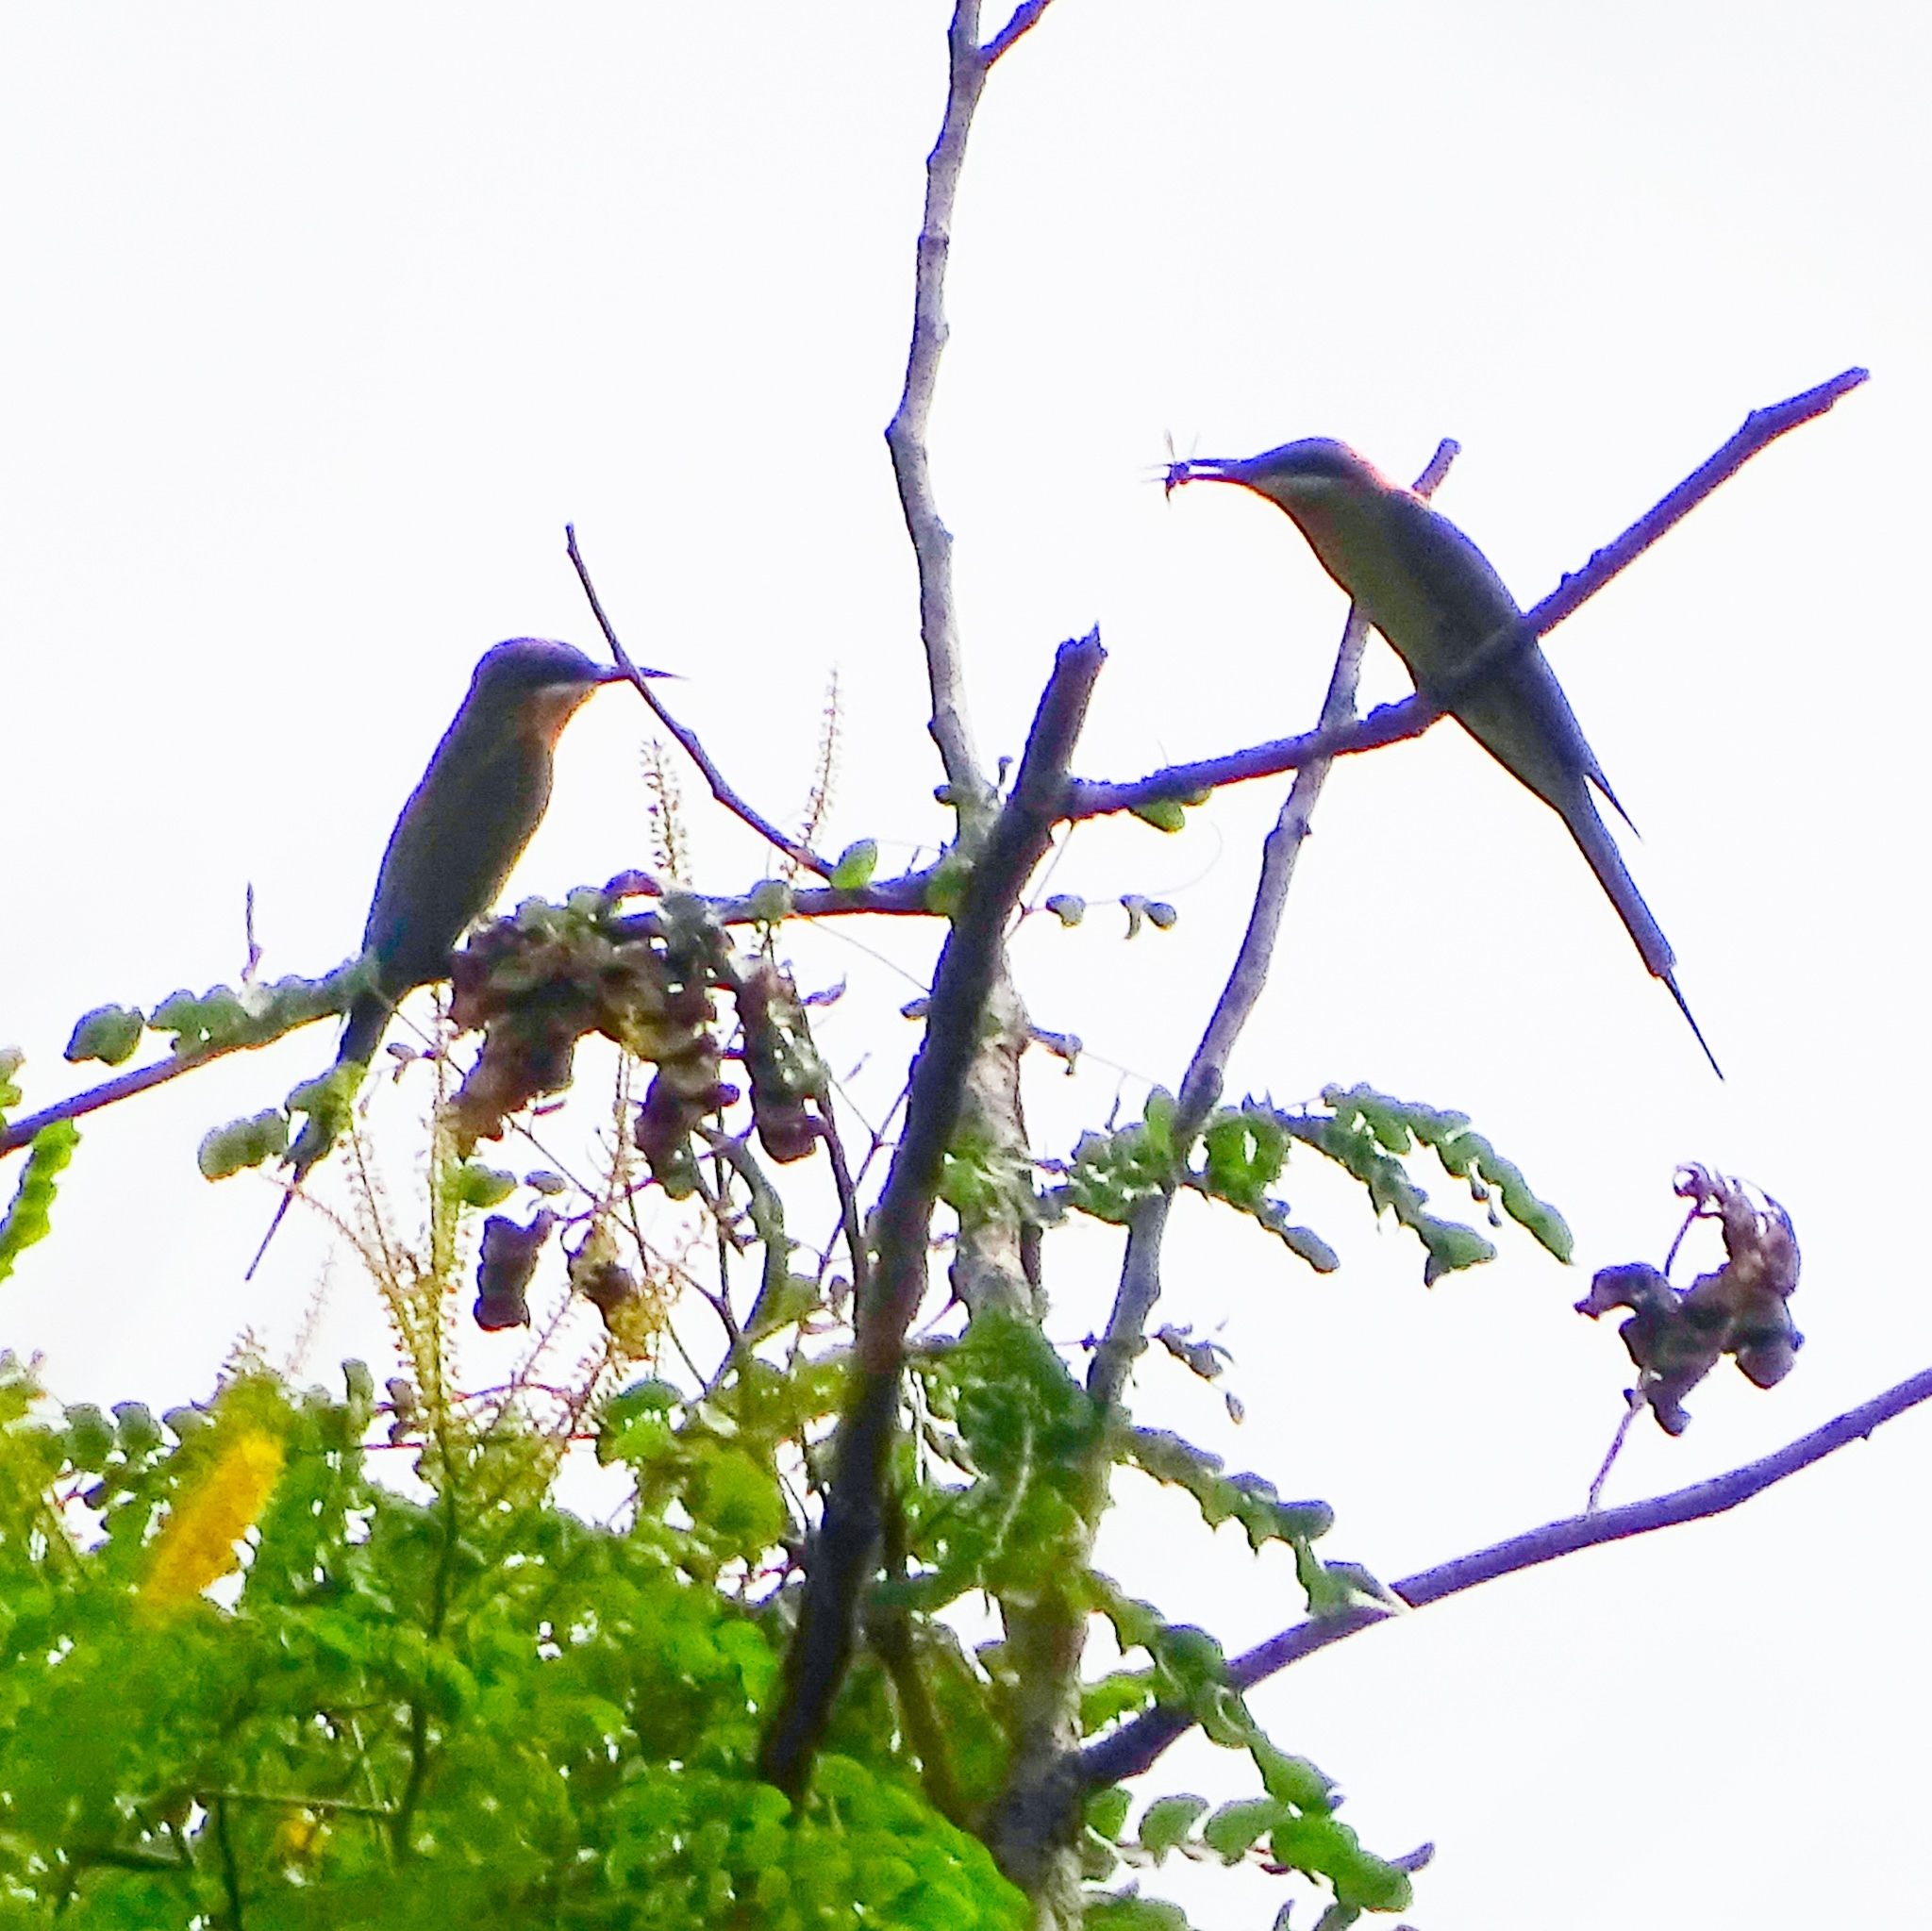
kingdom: Animalia
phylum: Chordata
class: Aves
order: Coraciiformes
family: Meropidae
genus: Merops
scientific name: Merops philippinus
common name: Blue-tailed bee-eater
